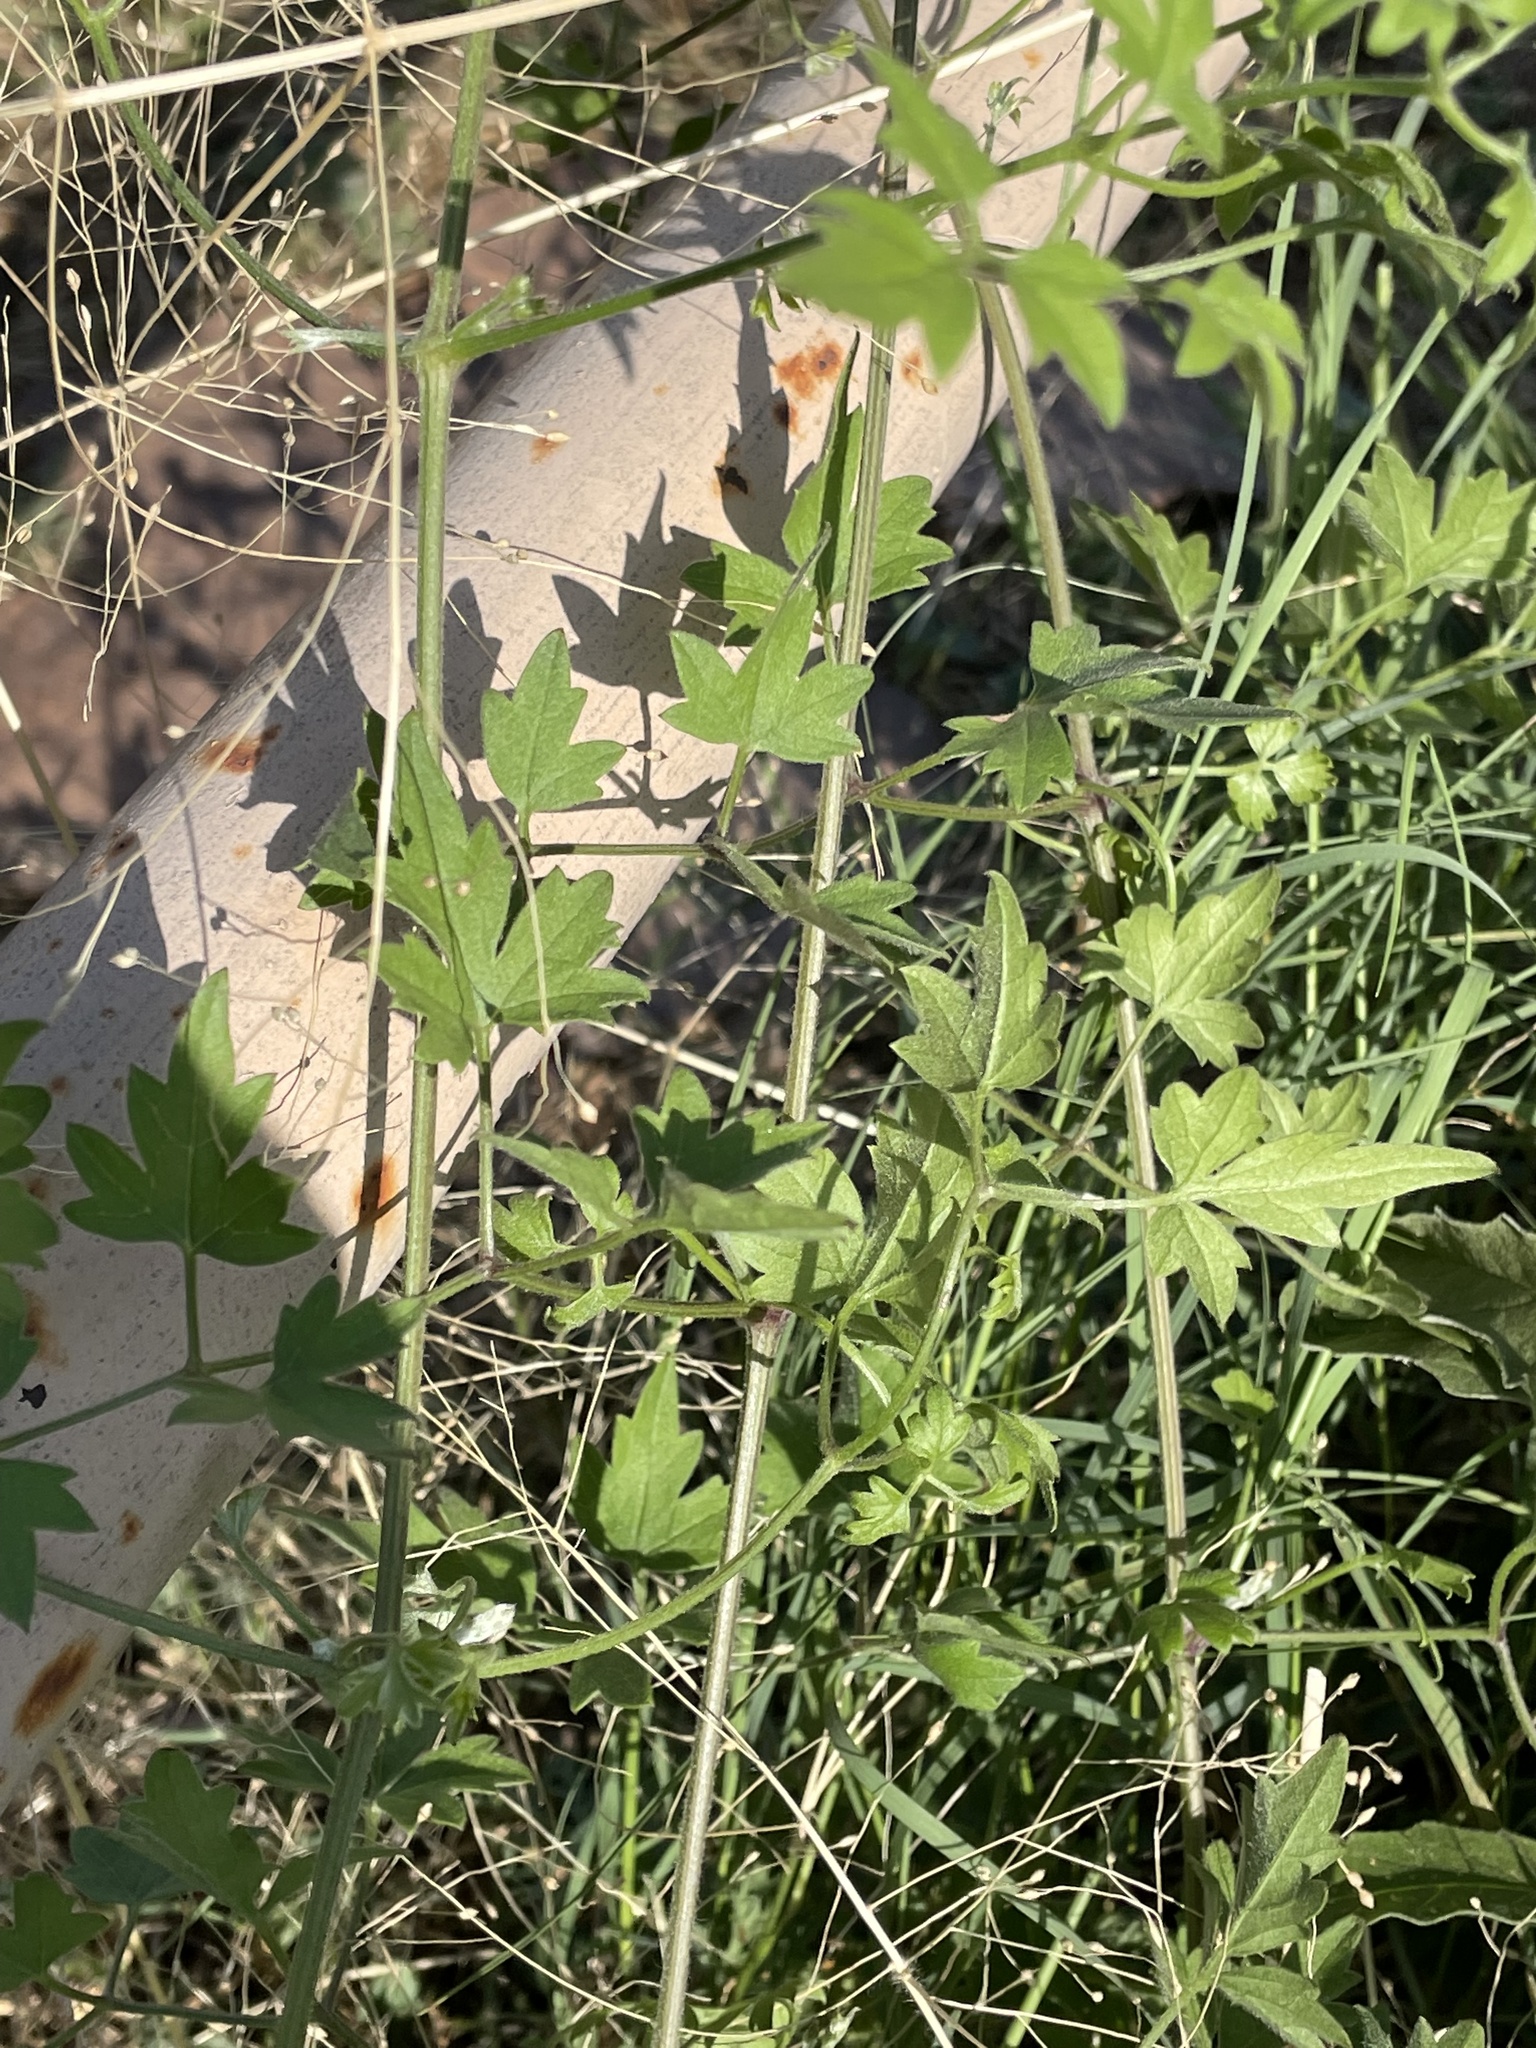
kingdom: Plantae
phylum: Tracheophyta
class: Magnoliopsida
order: Ranunculales
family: Ranunculaceae
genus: Clematis
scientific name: Clematis drummondii
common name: Texas virgin's bower
